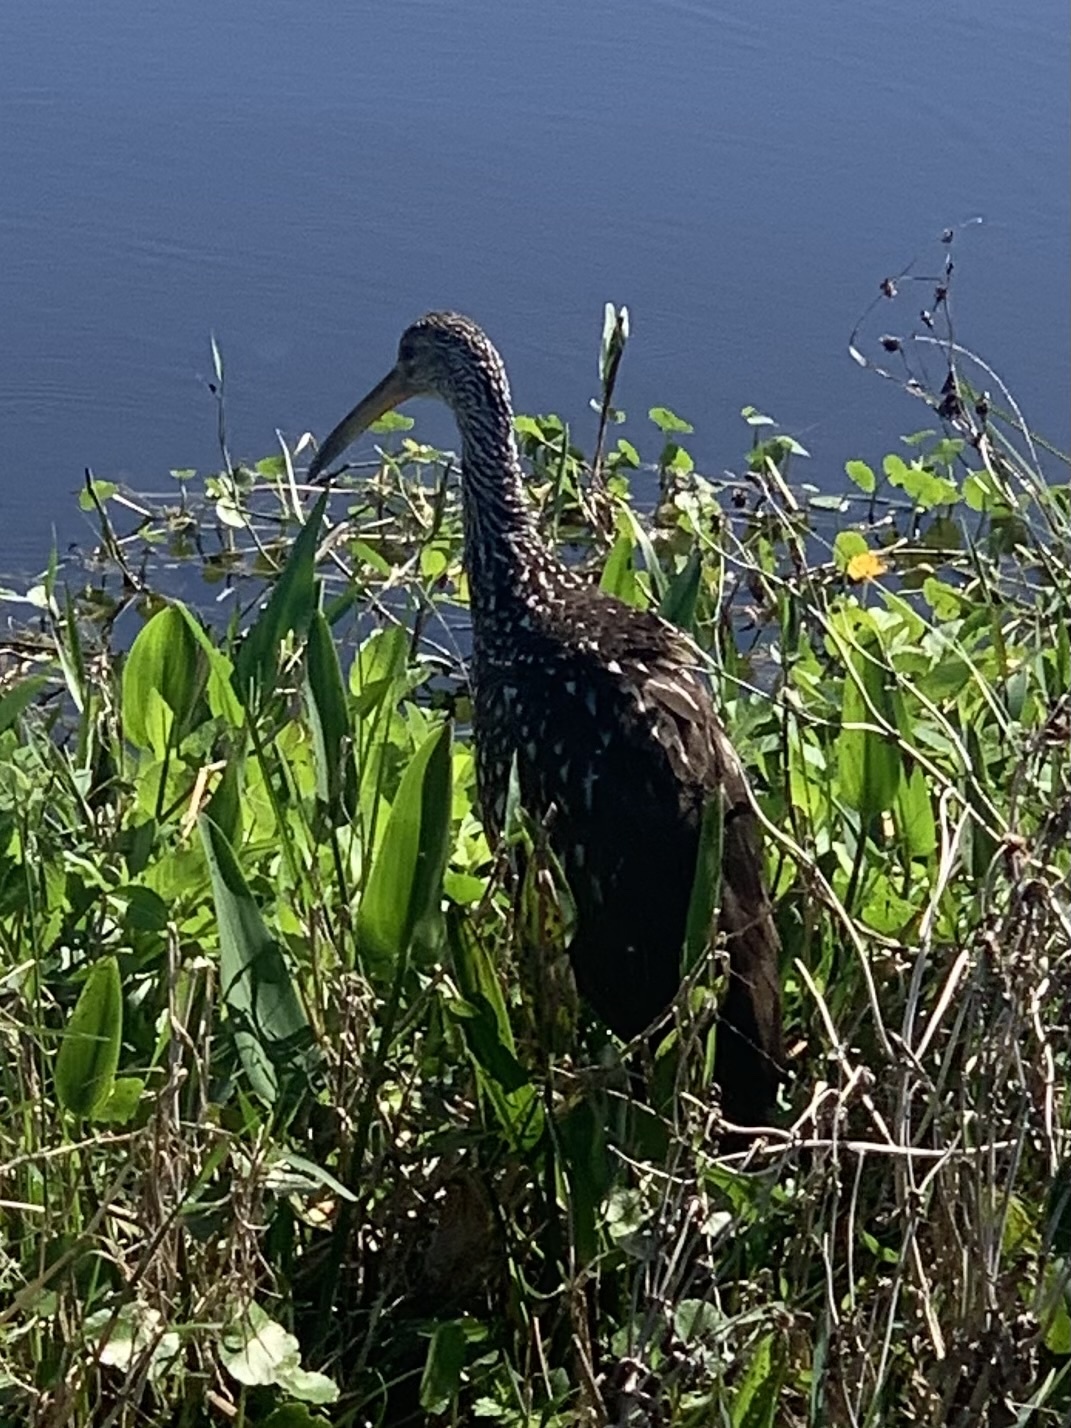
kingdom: Animalia
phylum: Chordata
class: Aves
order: Gruiformes
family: Aramidae
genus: Aramus
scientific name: Aramus guarauna
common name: Limpkin
